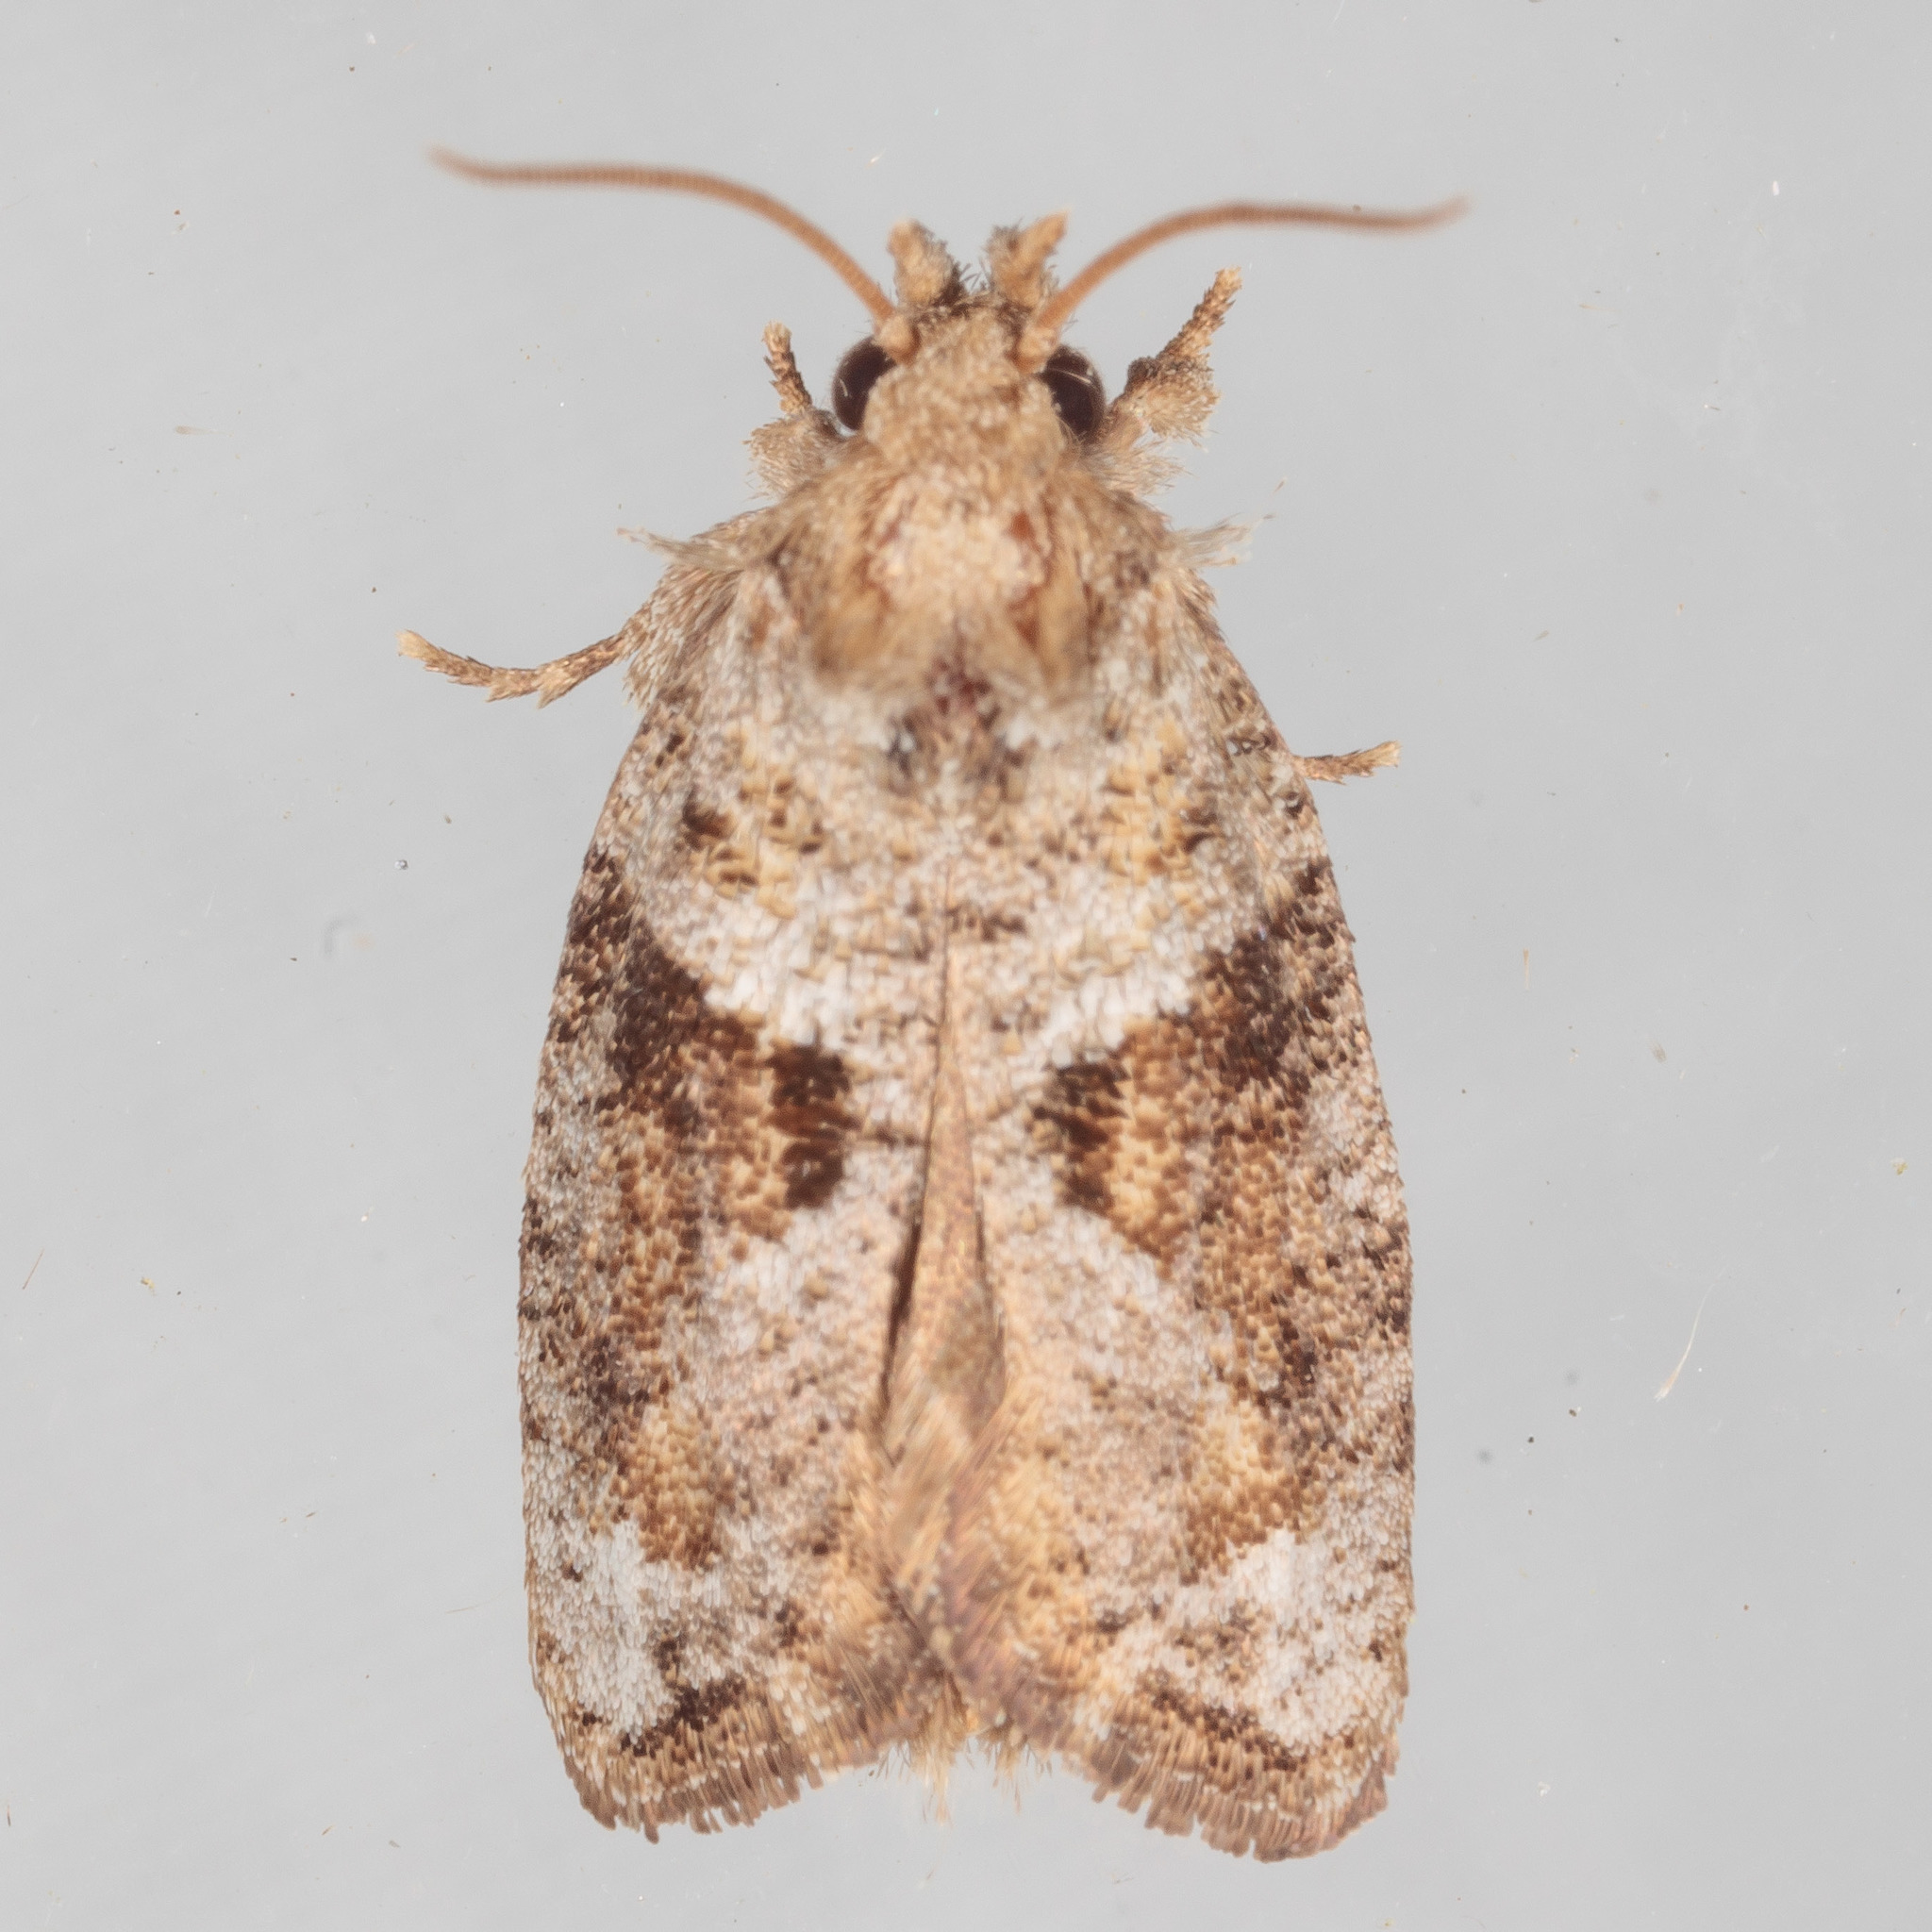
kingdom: Animalia
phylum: Arthropoda
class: Insecta
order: Lepidoptera
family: Tineidae
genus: Acrolophus
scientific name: Acrolophus piger
